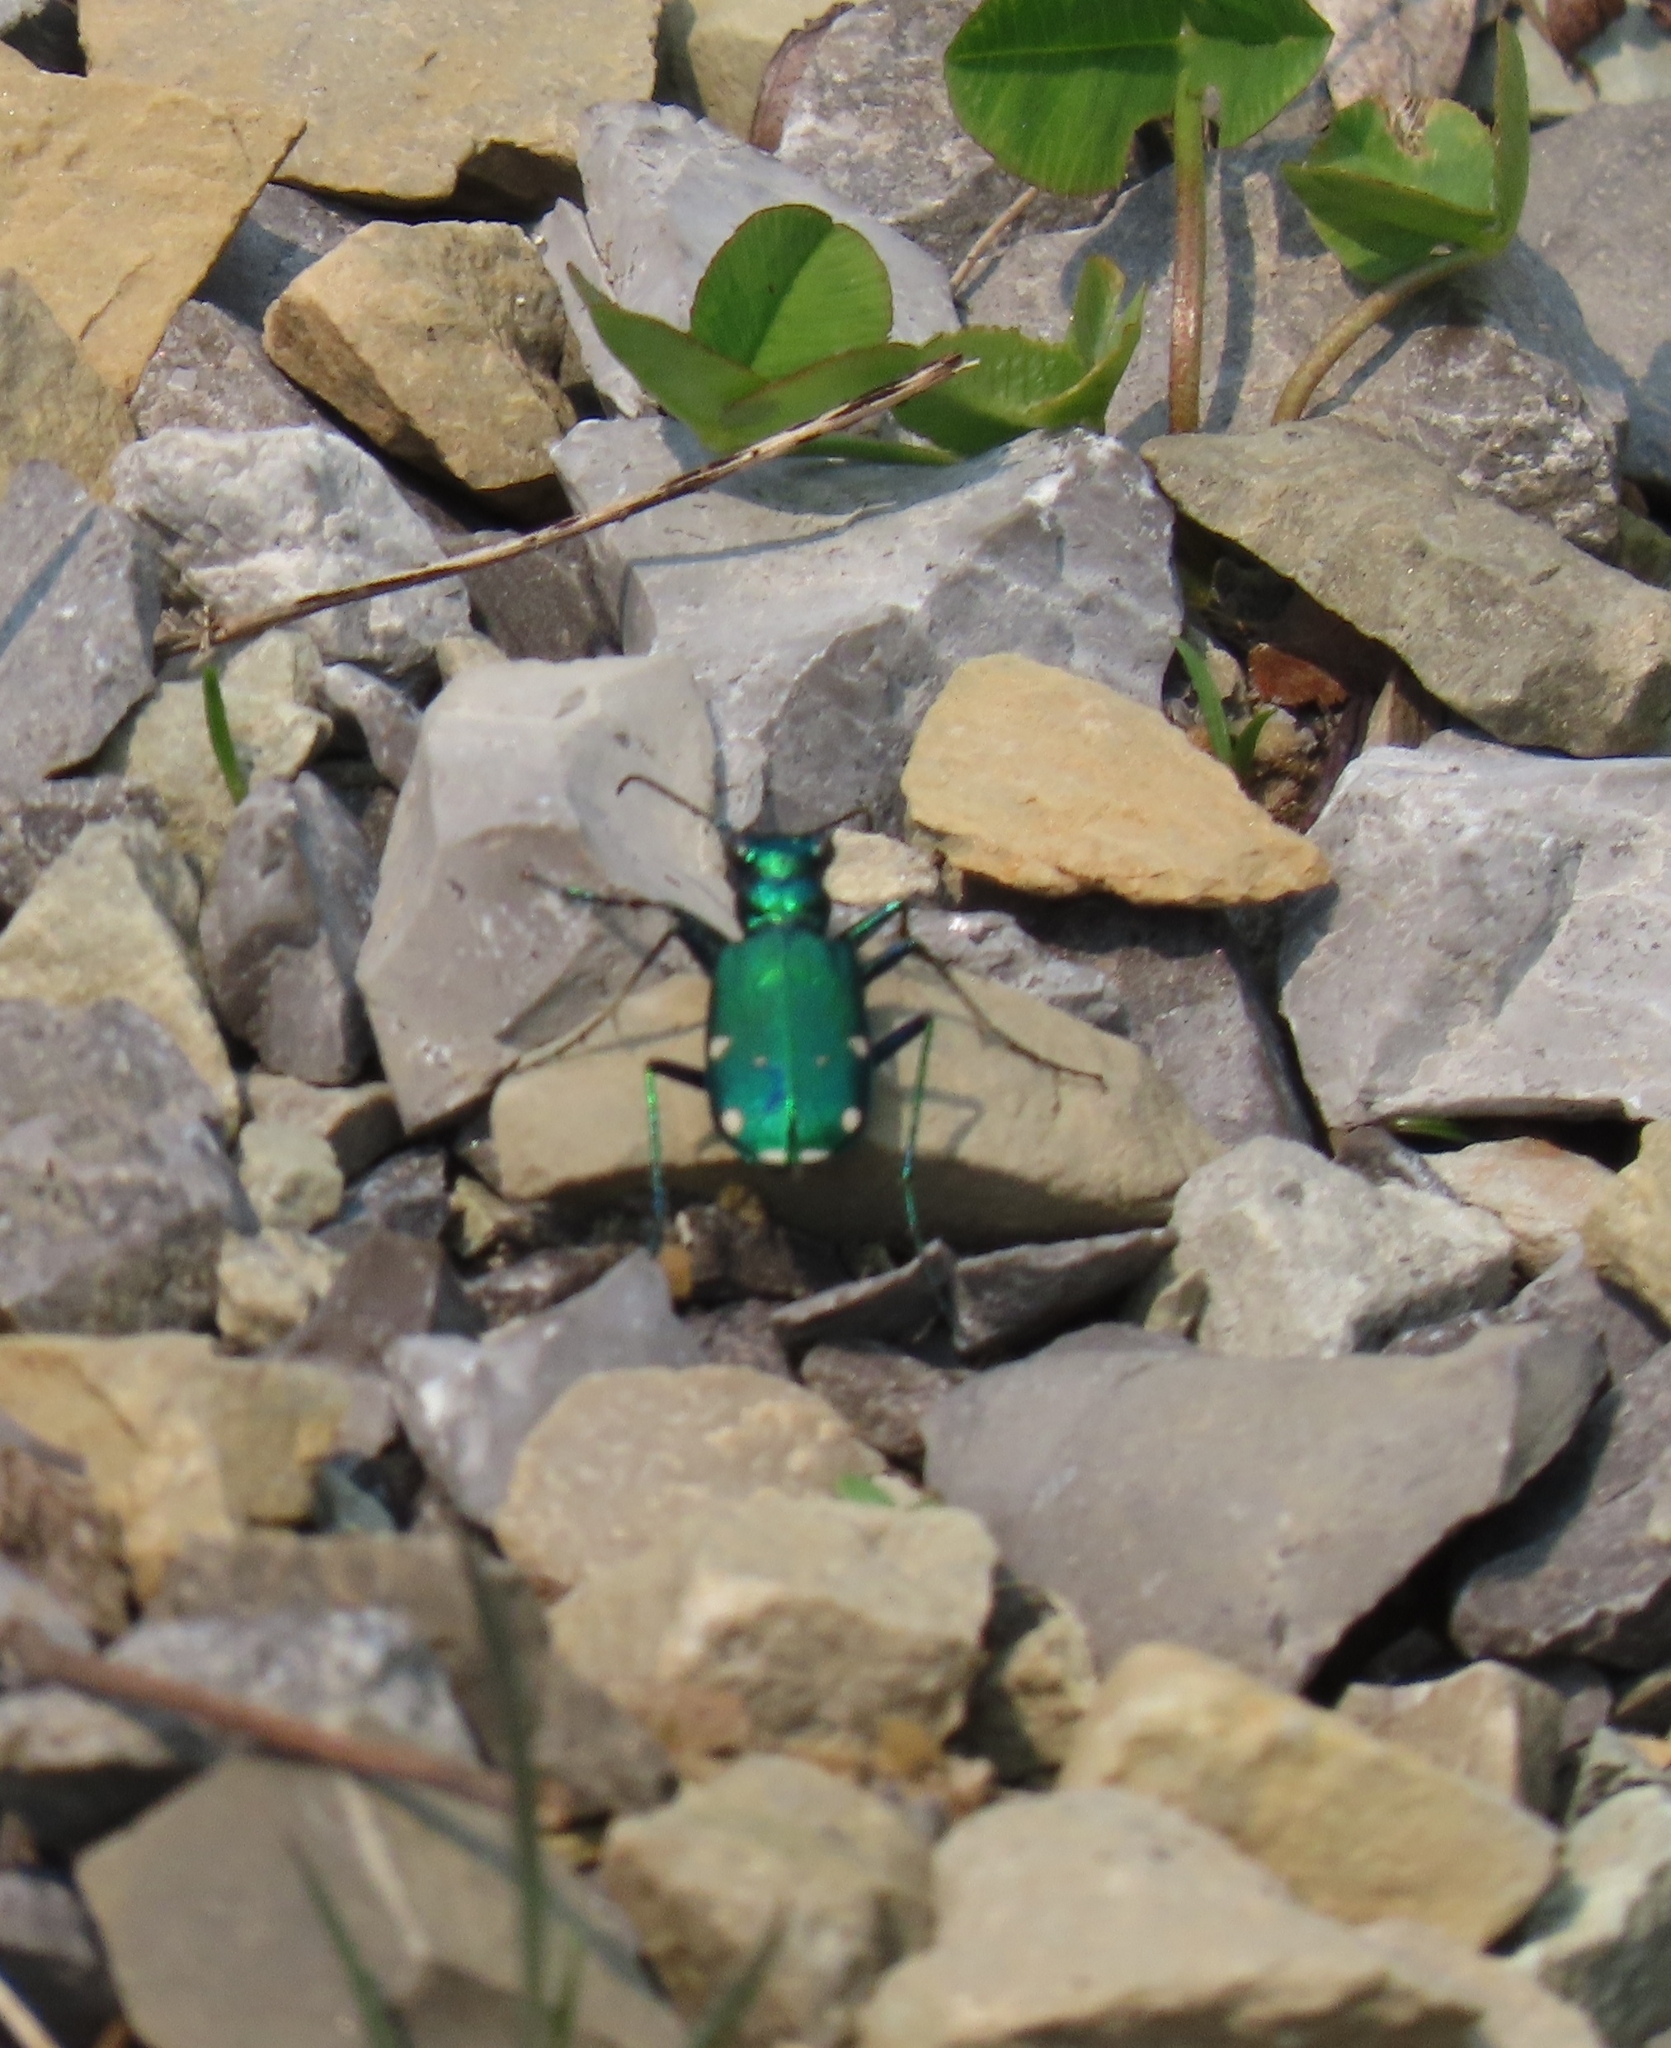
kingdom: Animalia
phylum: Arthropoda
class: Insecta
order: Coleoptera
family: Carabidae
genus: Cicindela
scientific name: Cicindela sexguttata
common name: Six-spotted tiger beetle
